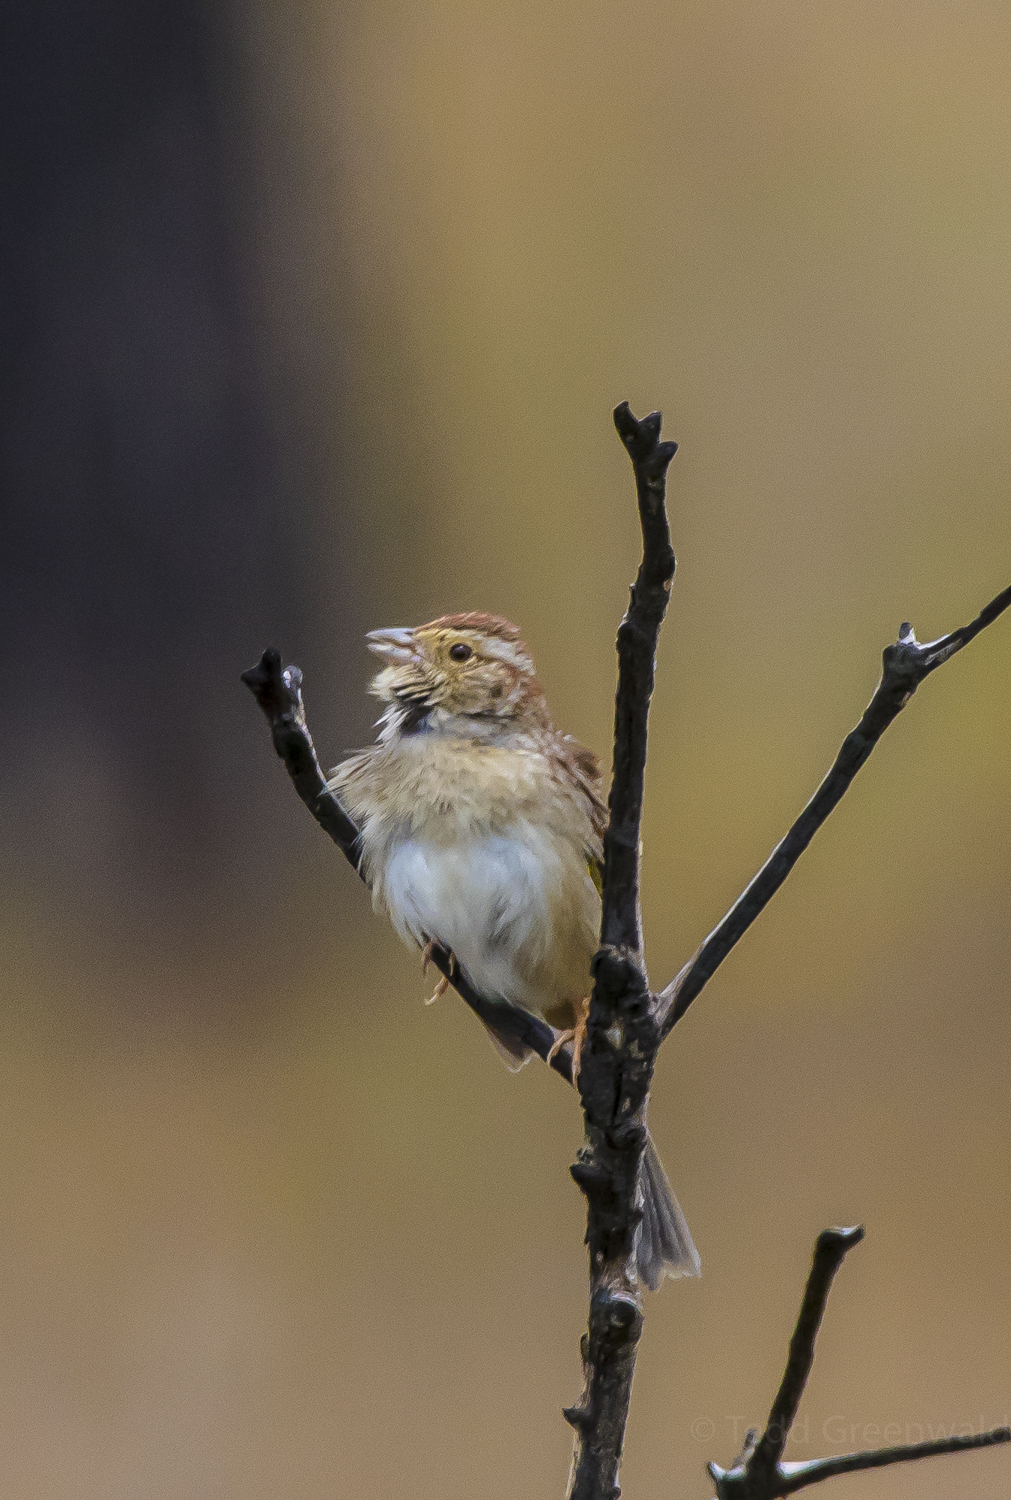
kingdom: Animalia
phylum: Chordata
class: Aves
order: Passeriformes
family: Passerellidae
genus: Peucaea
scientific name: Peucaea aestivalis
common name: Bachman's sparrow
